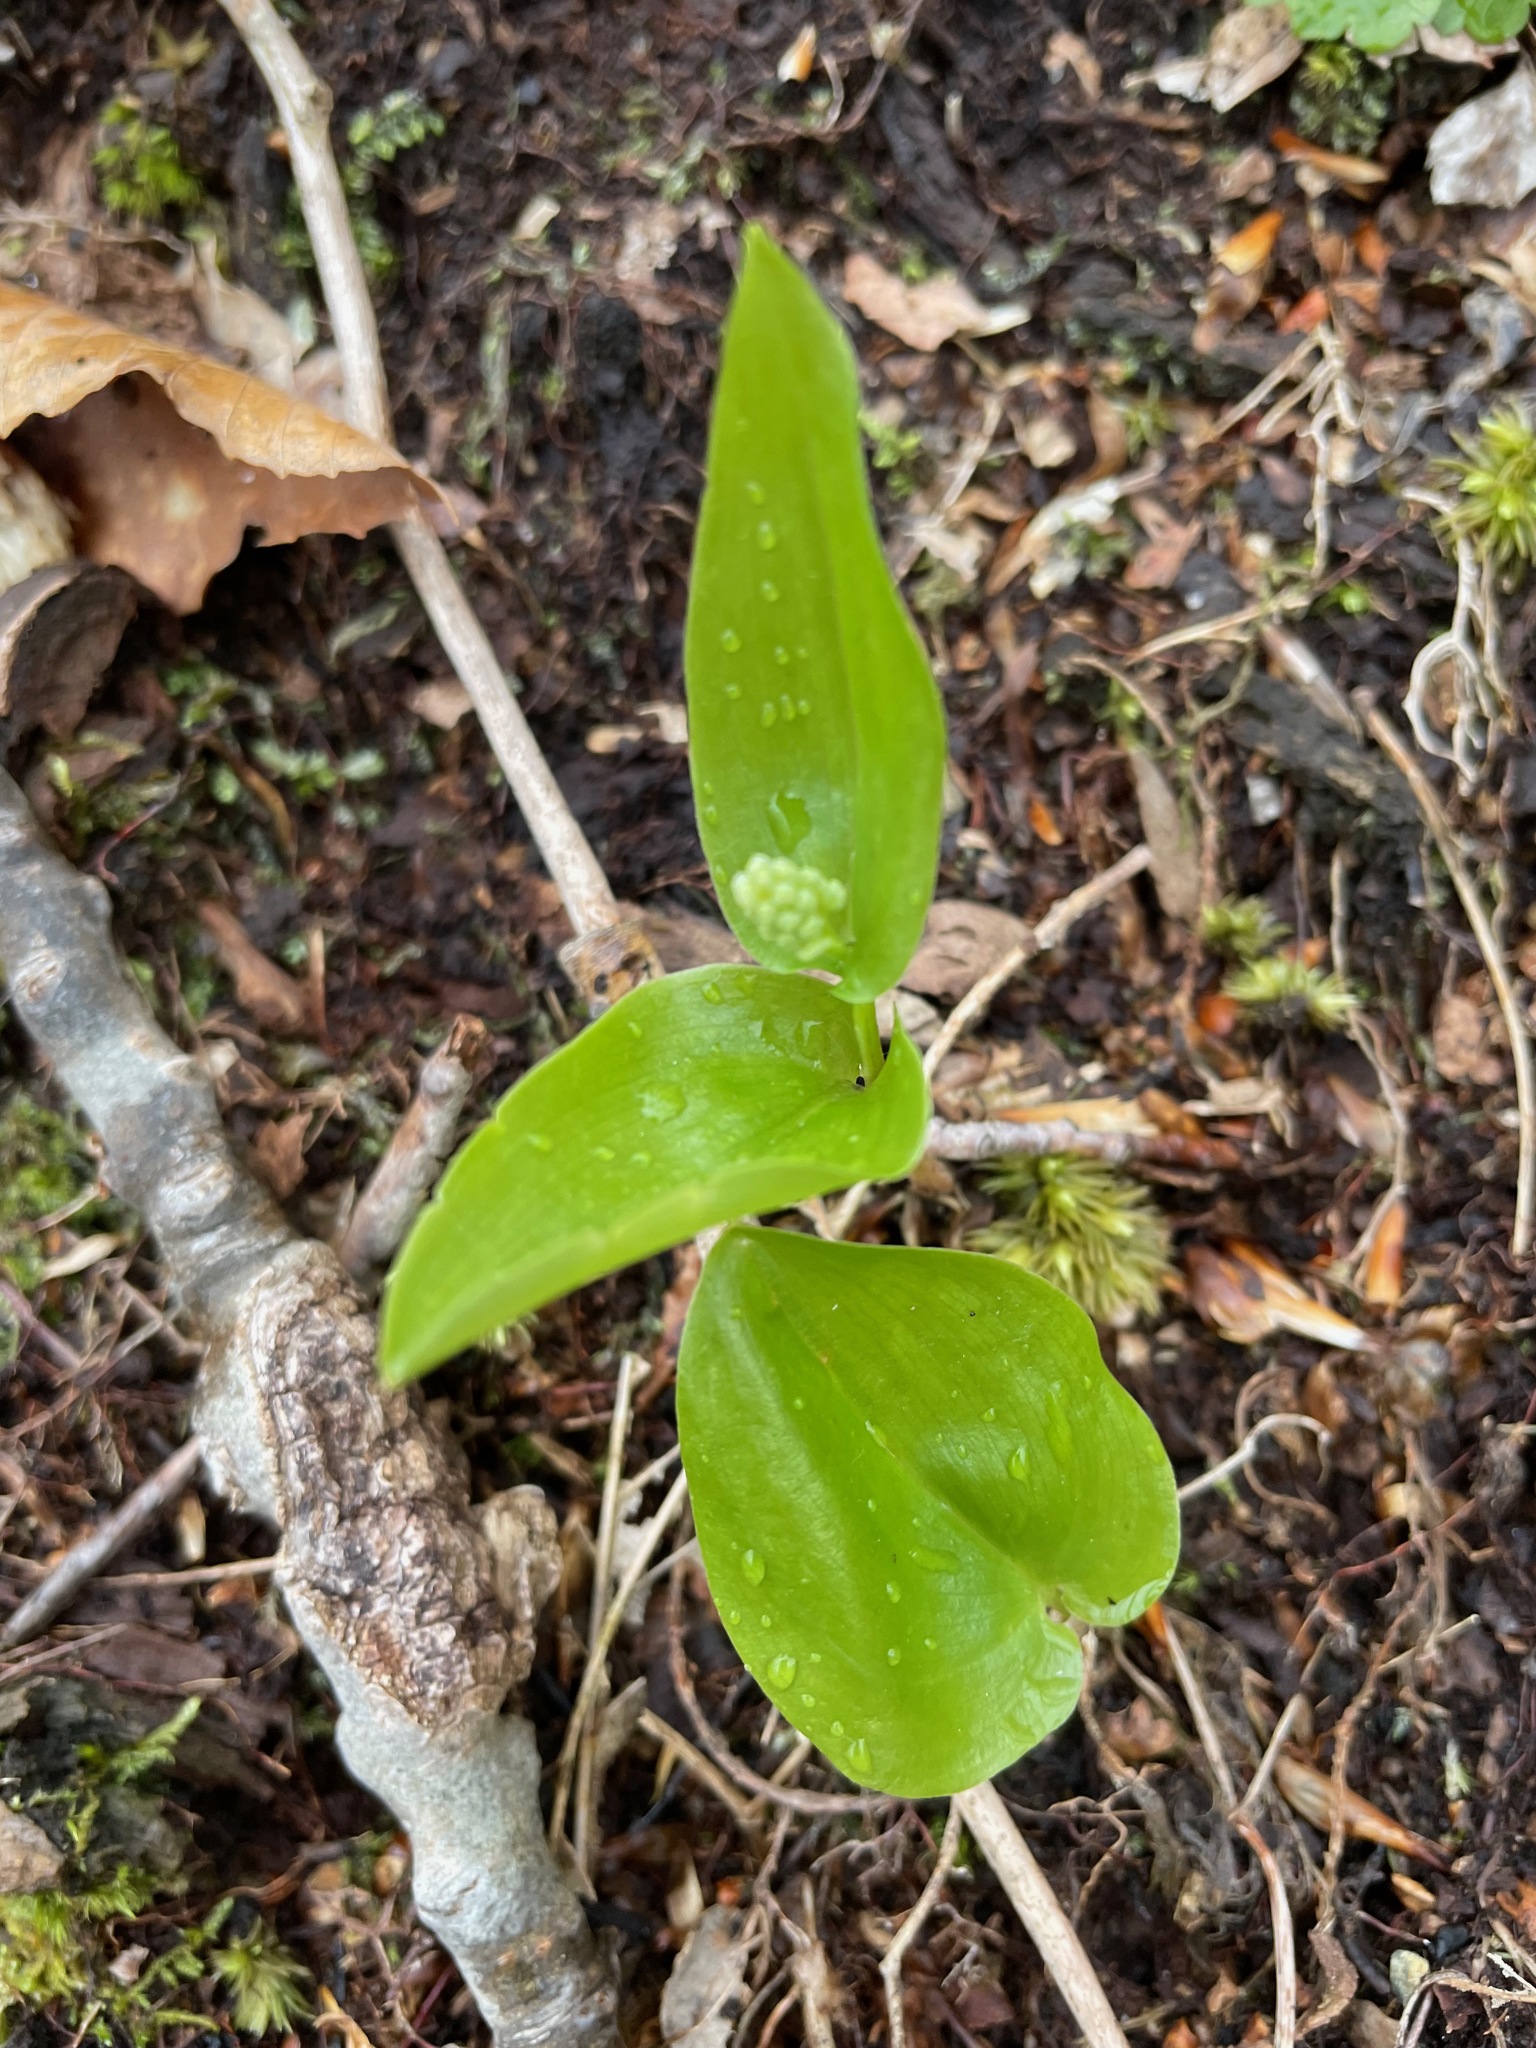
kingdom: Plantae
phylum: Tracheophyta
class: Liliopsida
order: Asparagales
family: Asparagaceae
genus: Maianthemum
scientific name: Maianthemum canadense
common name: False lily-of-the-valley
